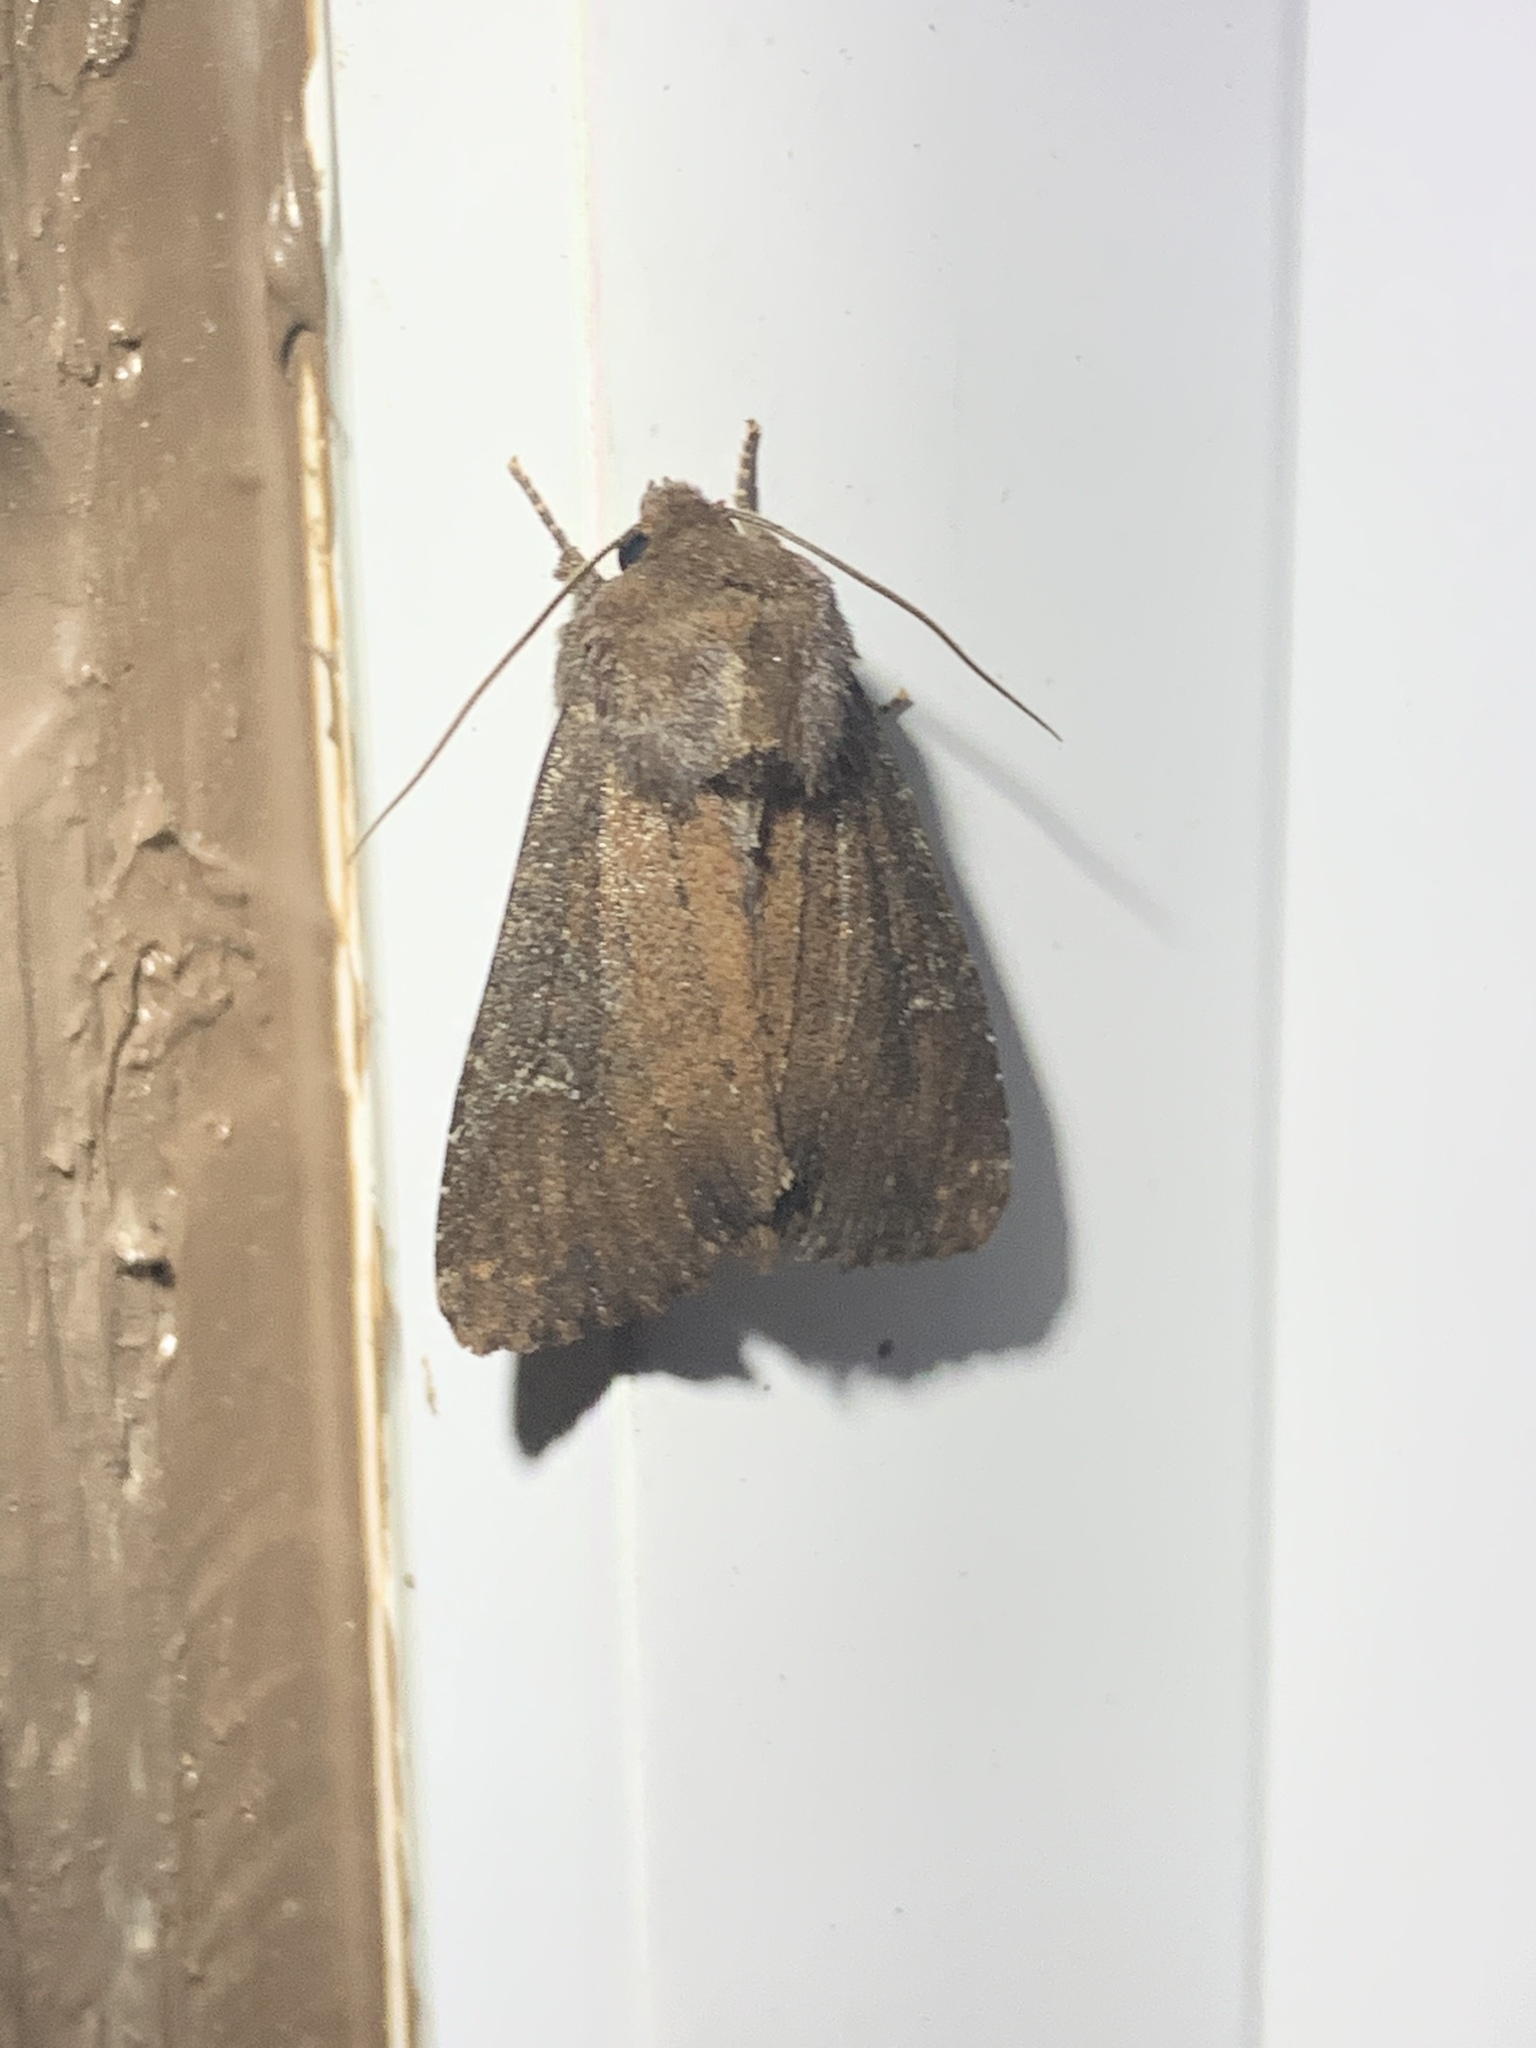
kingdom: Animalia
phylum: Arthropoda
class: Insecta
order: Lepidoptera
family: Noctuidae
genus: Apamea
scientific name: Apamea scoparia
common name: Faint-spotted quaker
